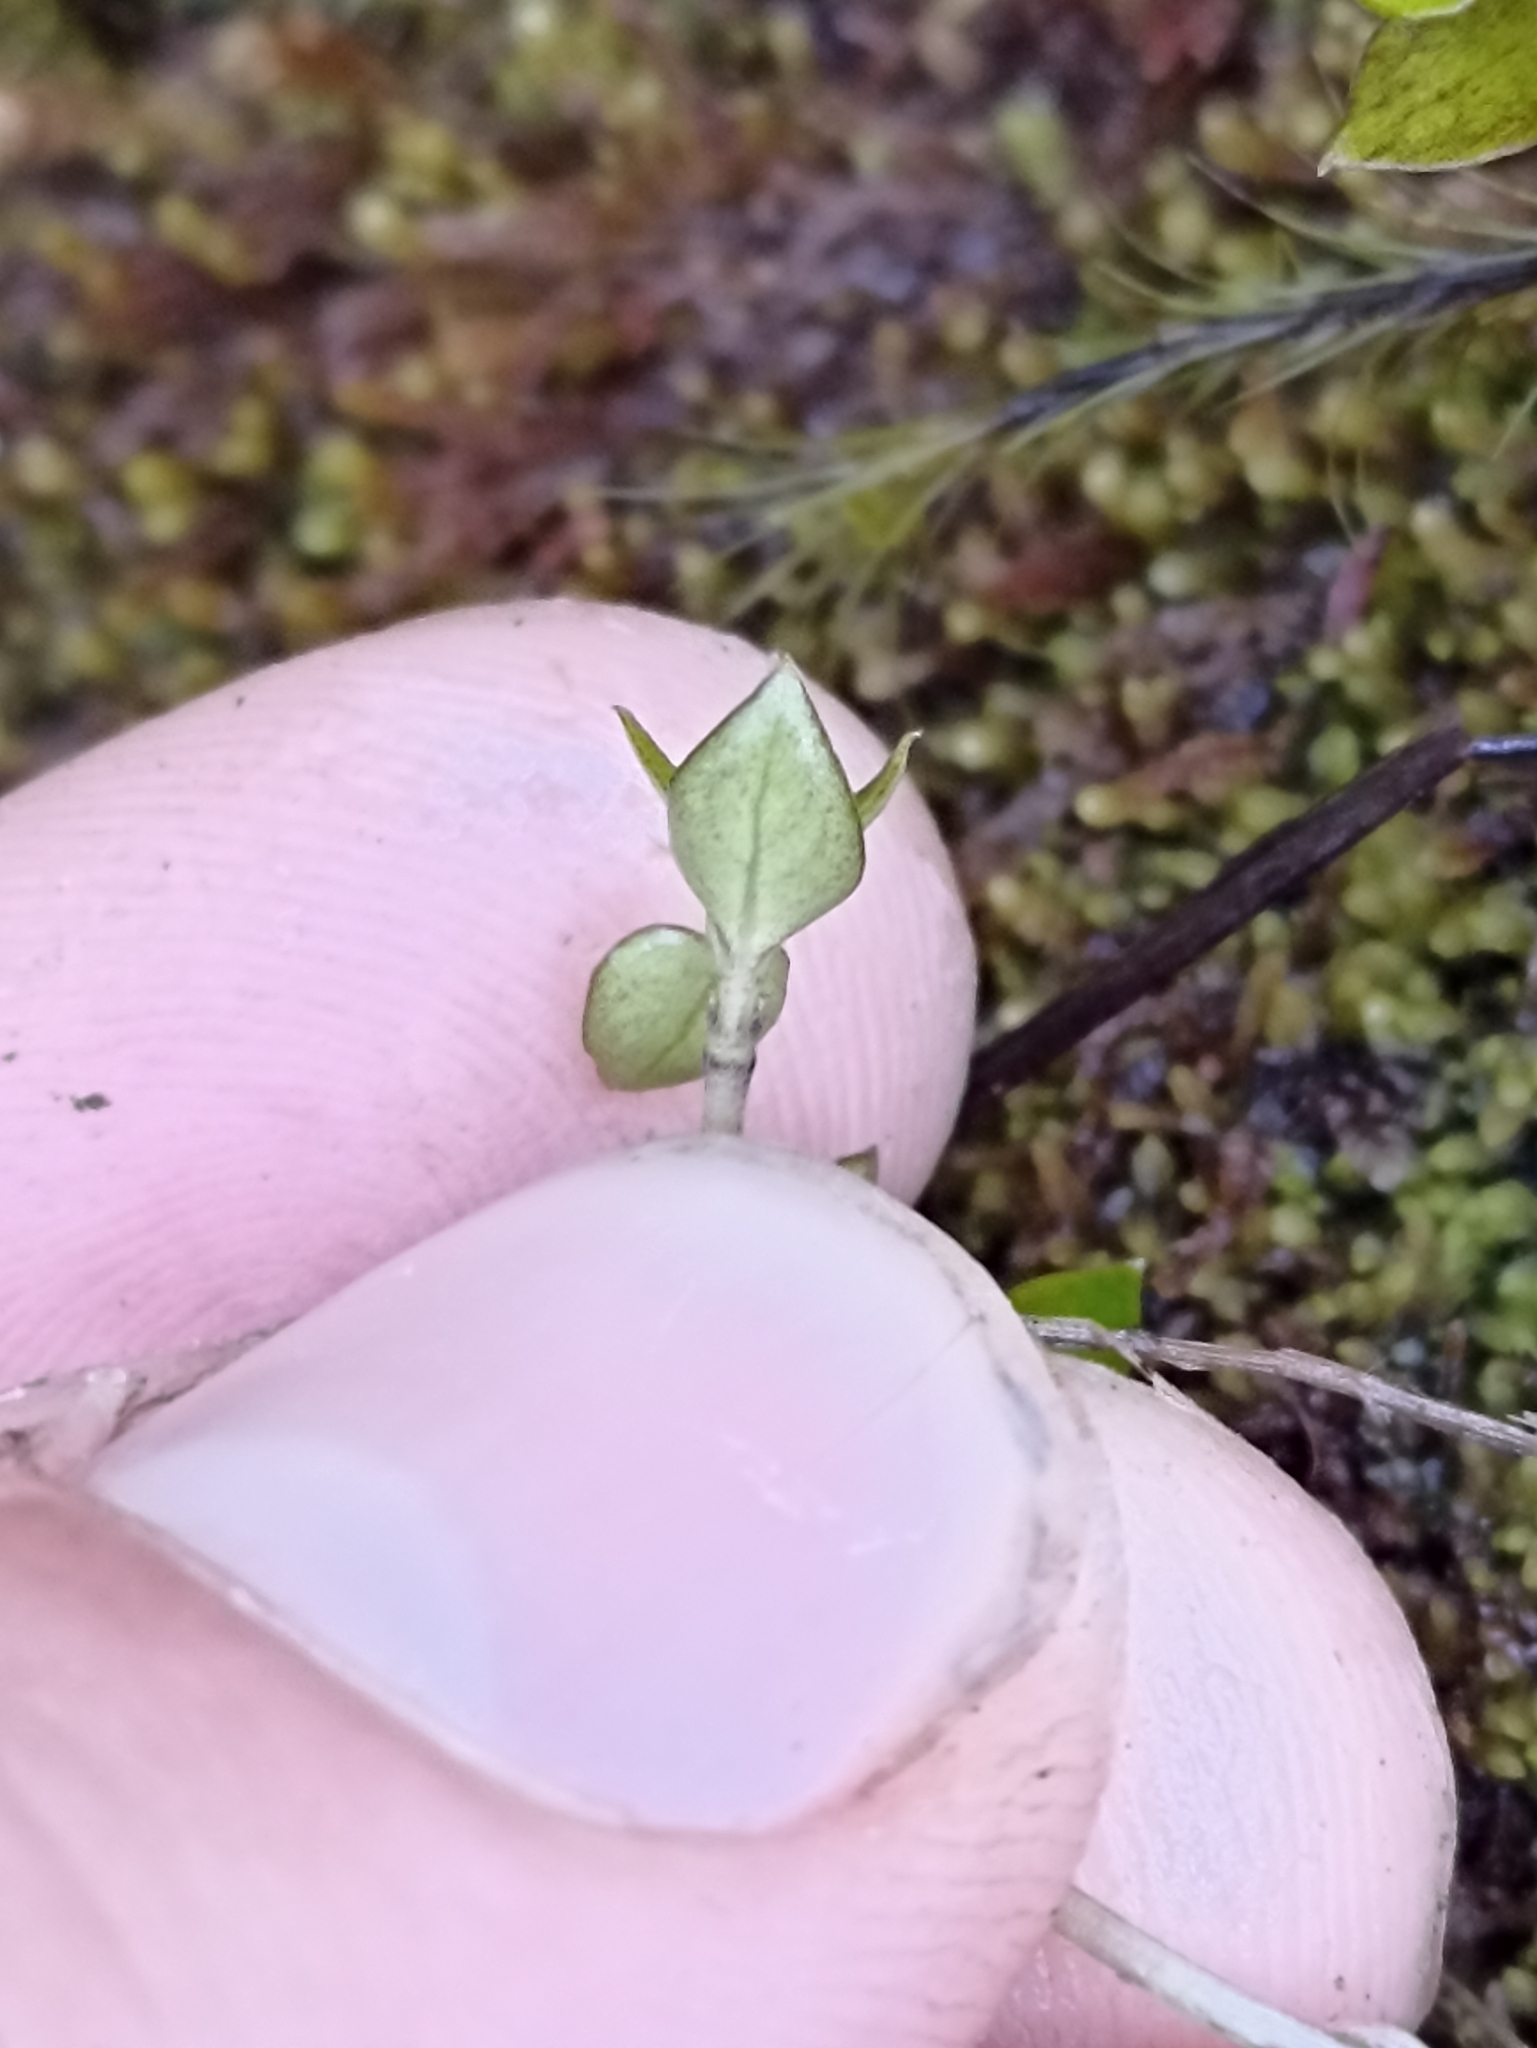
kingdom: Plantae
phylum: Tracheophyta
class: Magnoliopsida
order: Gentianales
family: Rubiaceae
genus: Nertera
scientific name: Nertera granadensis
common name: Beadplant
